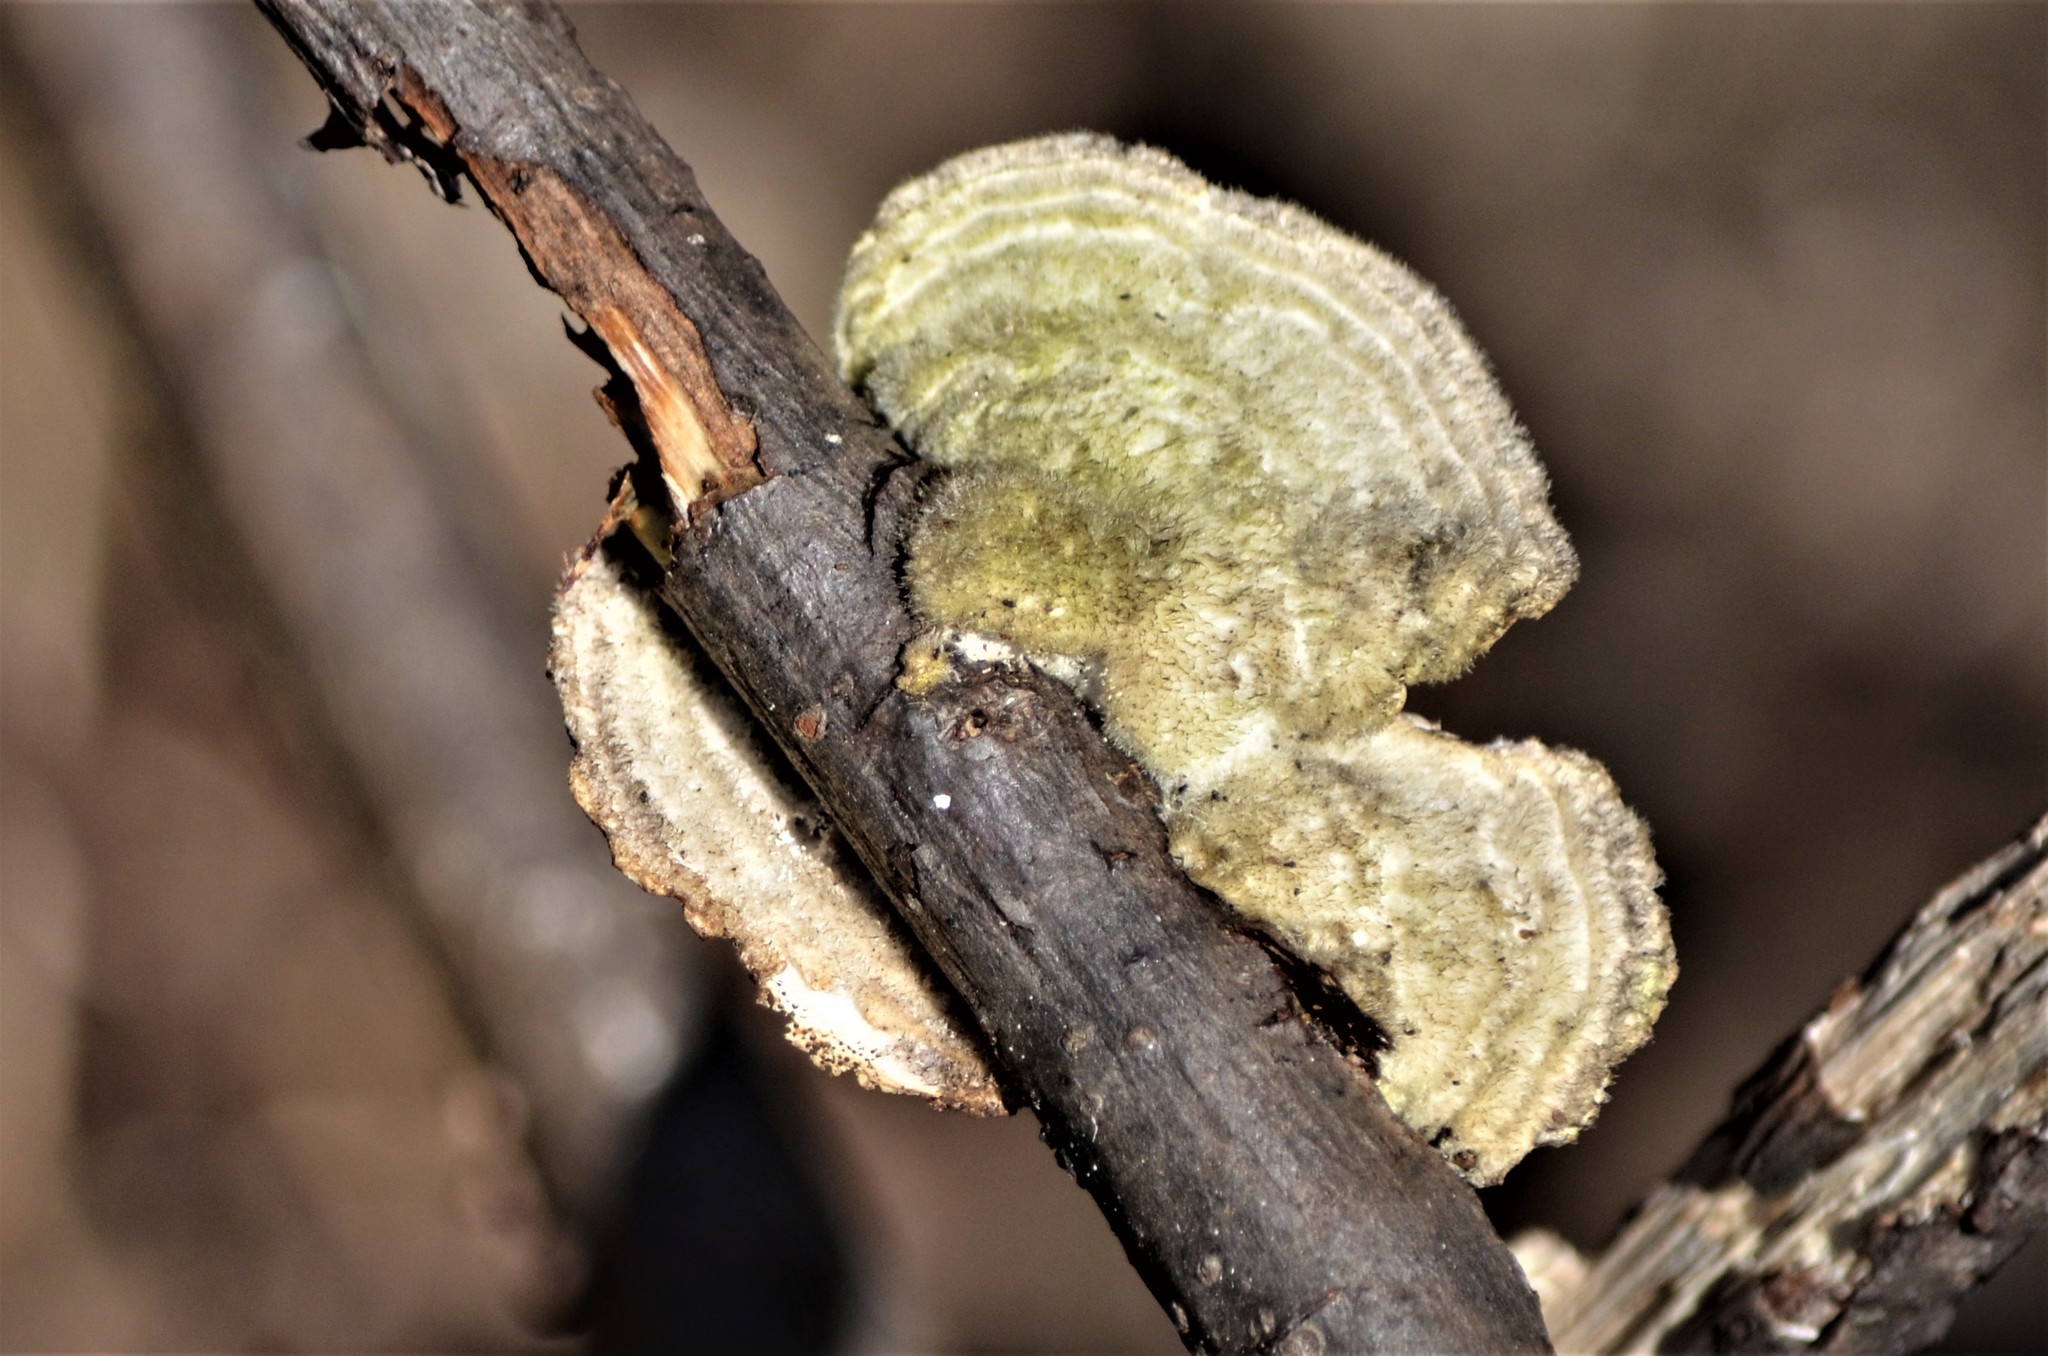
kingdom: Fungi
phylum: Basidiomycota
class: Agaricomycetes
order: Polyporales
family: Polyporaceae
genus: Trametes
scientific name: Trametes hirsuta
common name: Hairy bracket
